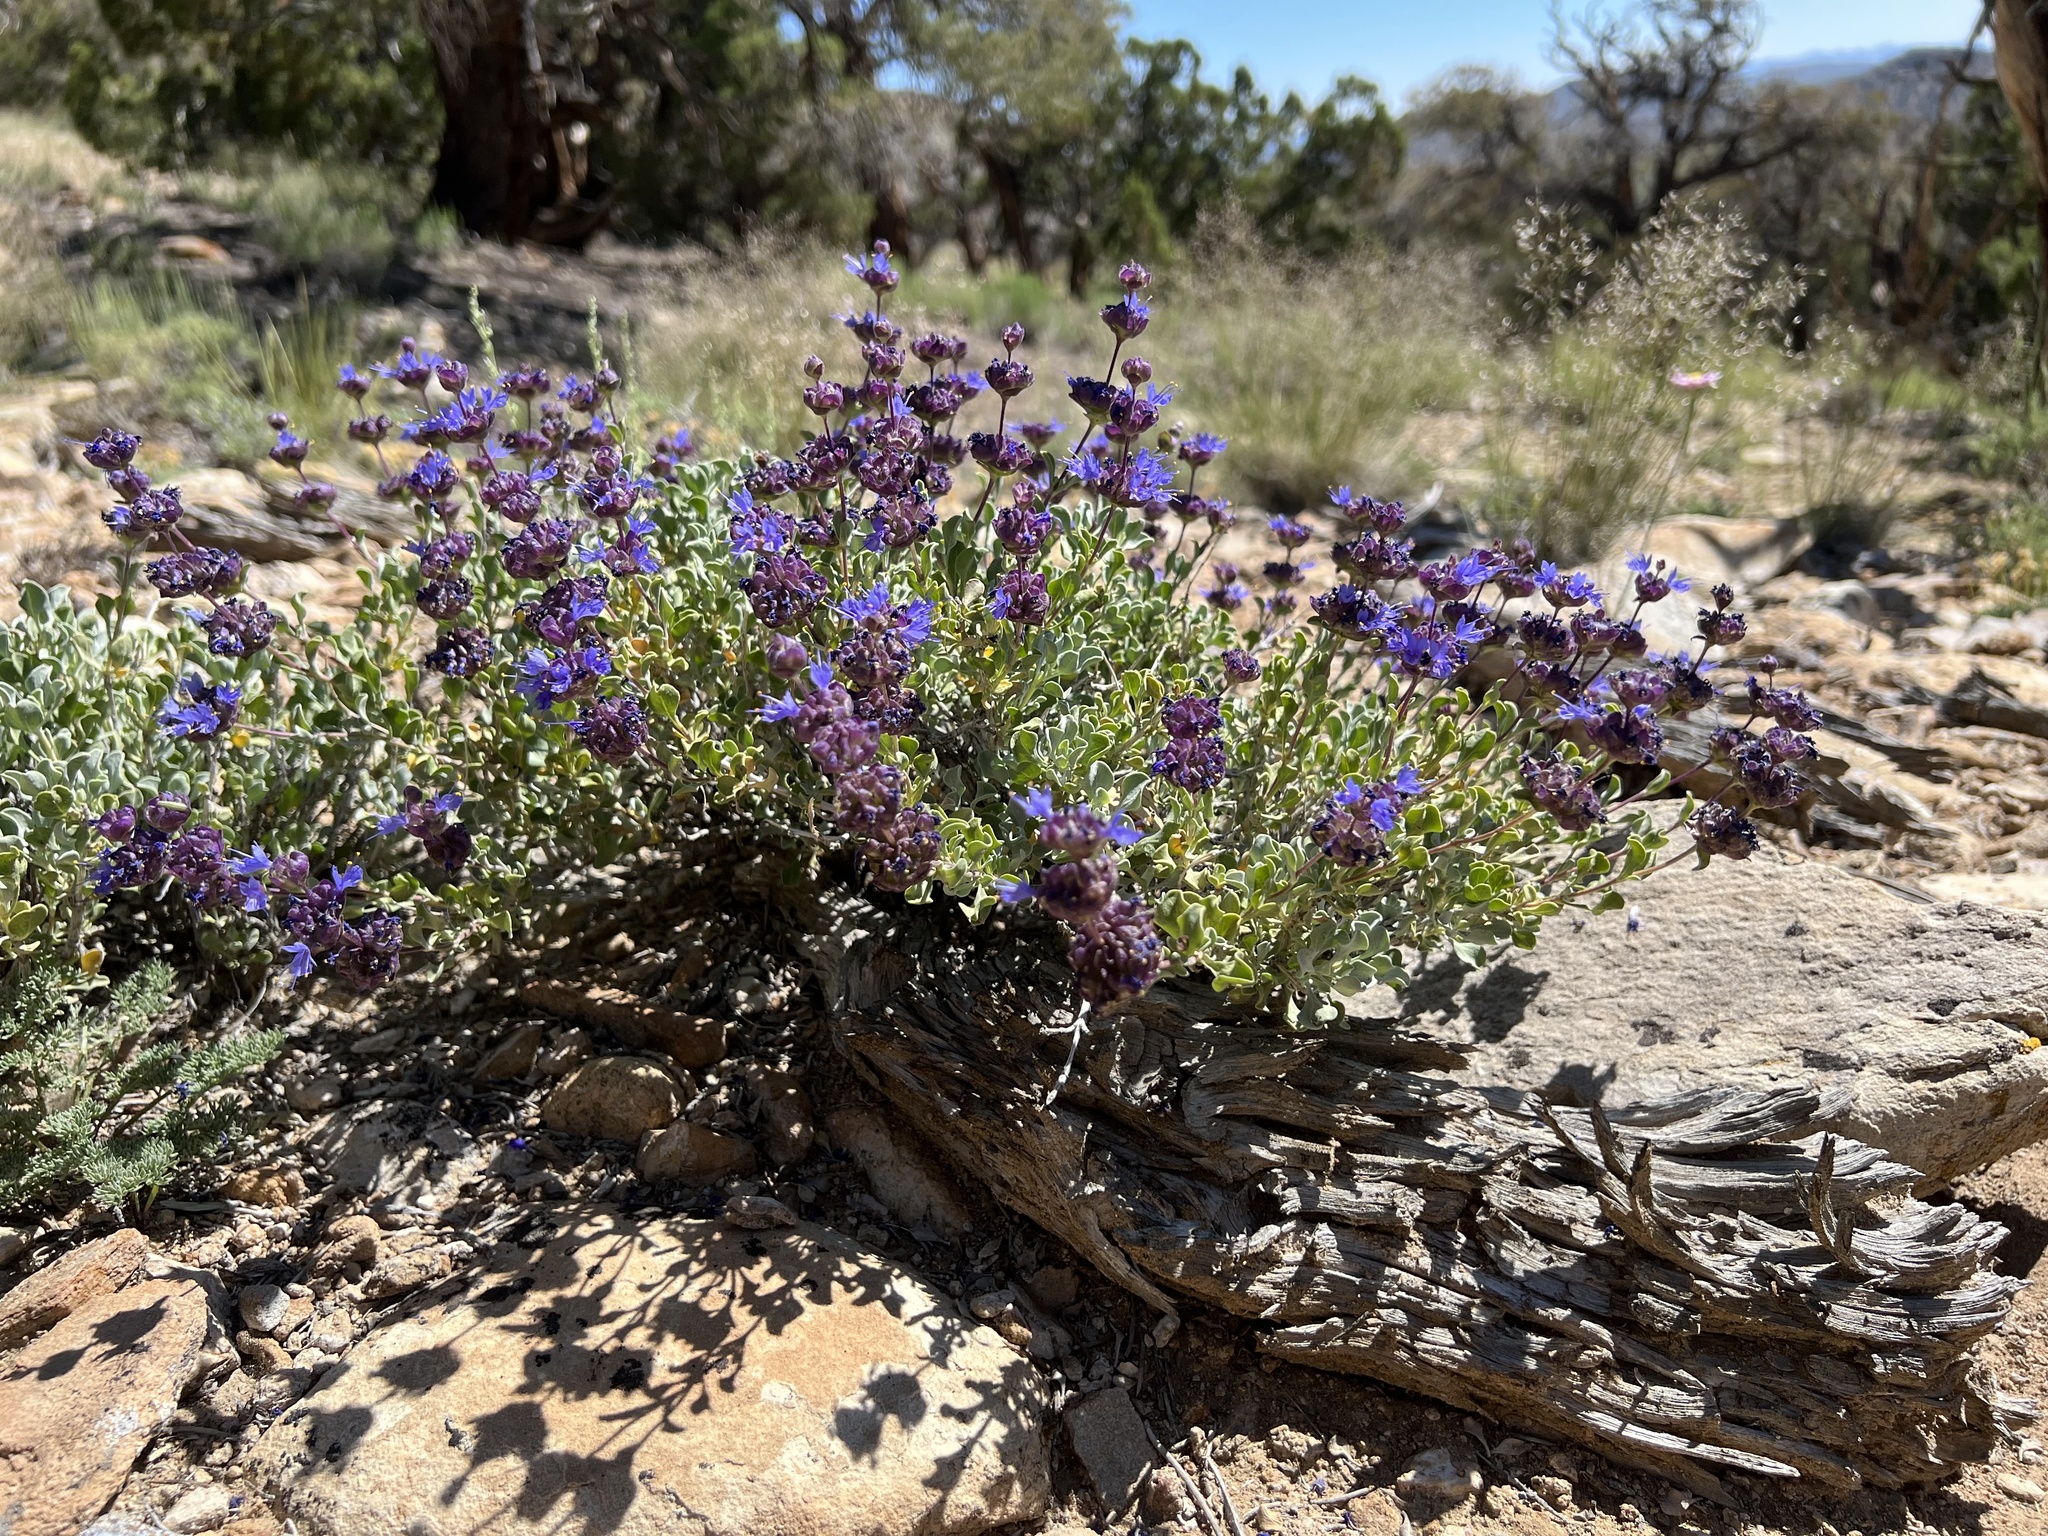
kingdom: Plantae
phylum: Tracheophyta
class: Magnoliopsida
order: Lamiales
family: Lamiaceae
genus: Salvia
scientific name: Salvia dorrii
